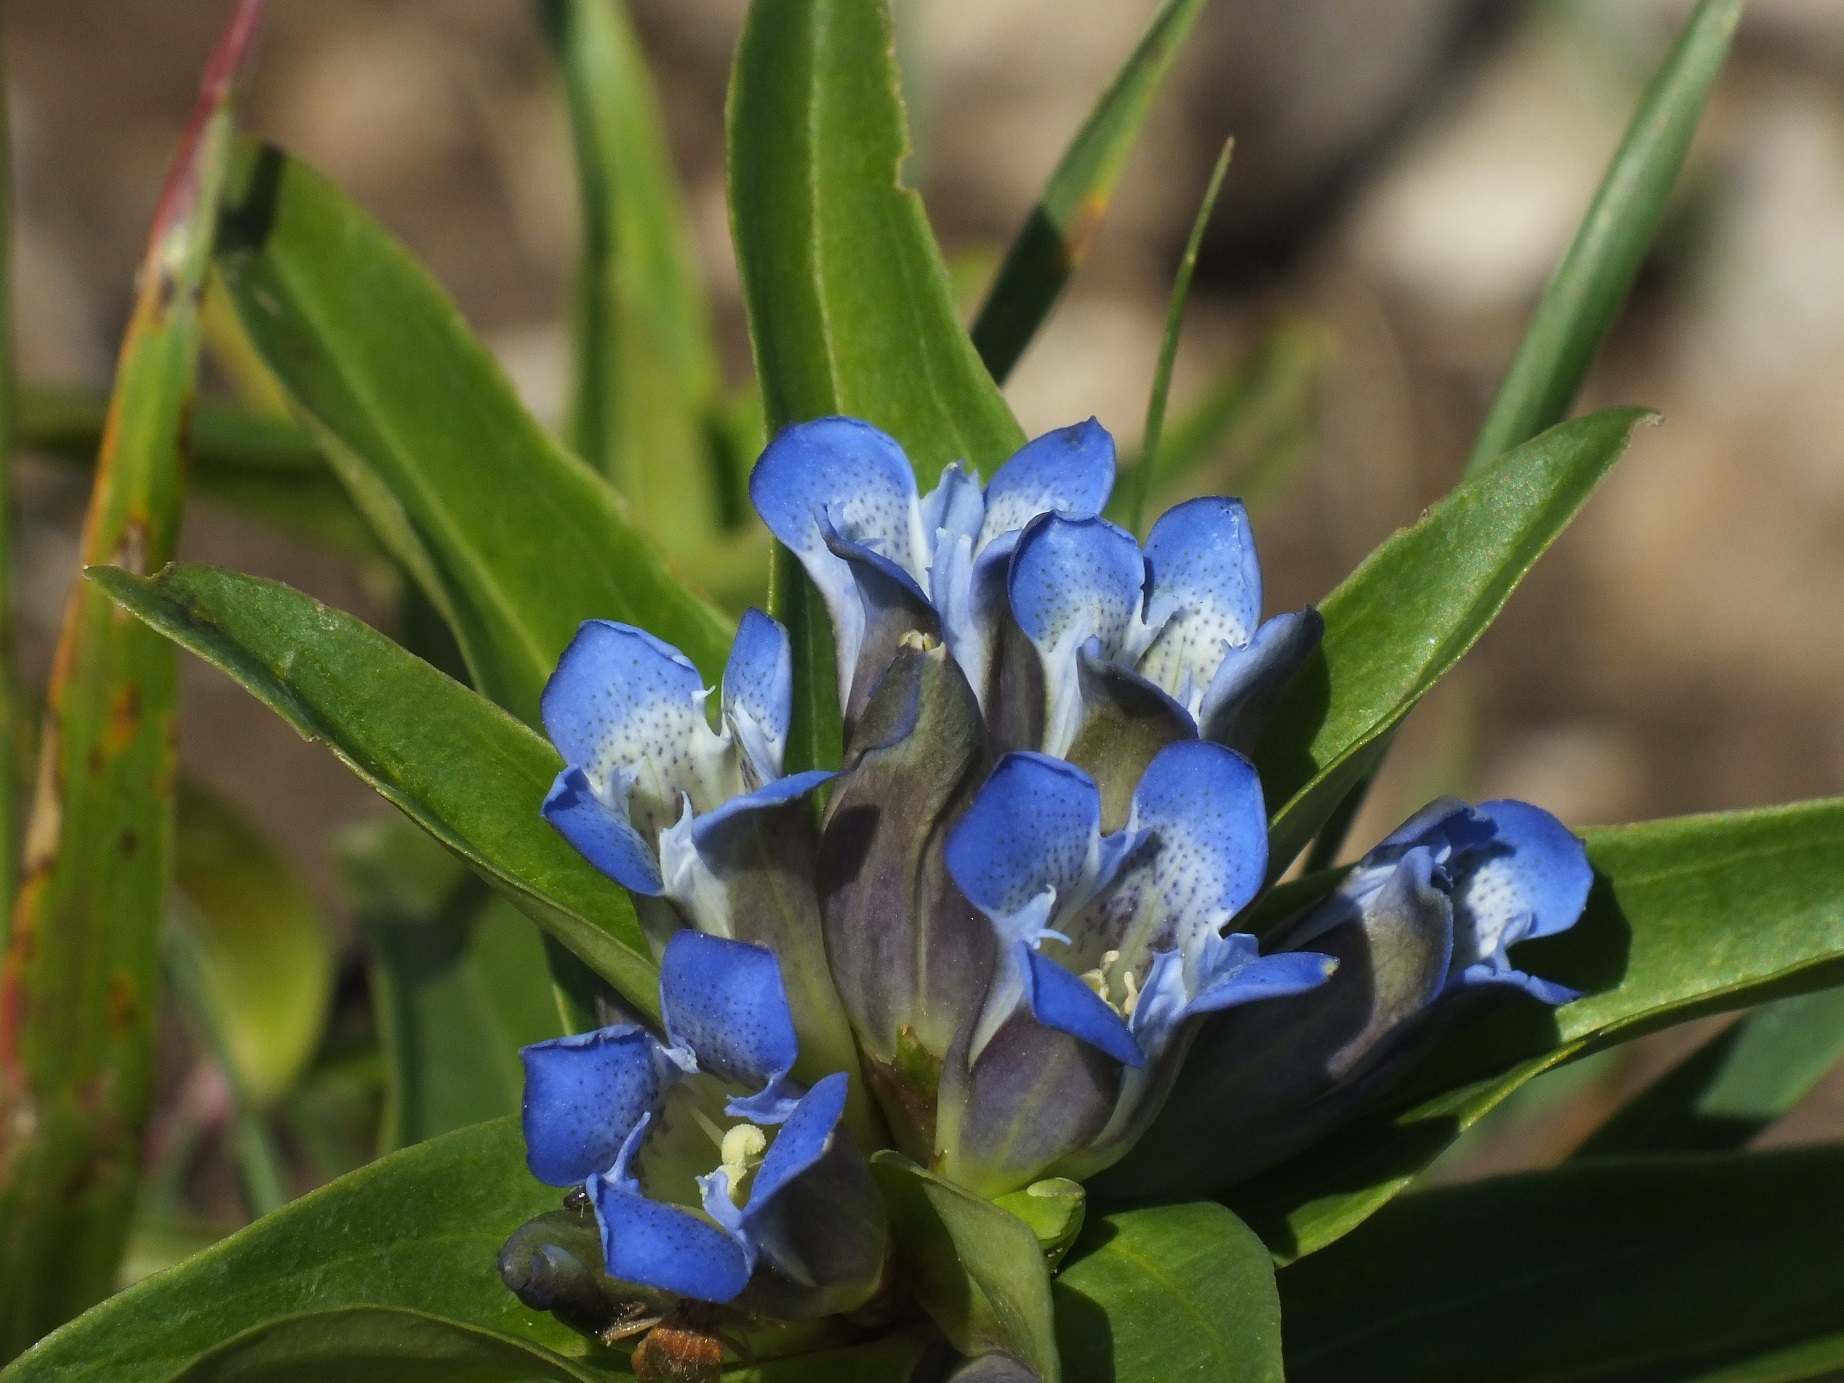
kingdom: Plantae
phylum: Tracheophyta
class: Magnoliopsida
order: Gentianales
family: Gentianaceae
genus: Gentiana
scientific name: Gentiana cruciata
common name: Cross gentian
